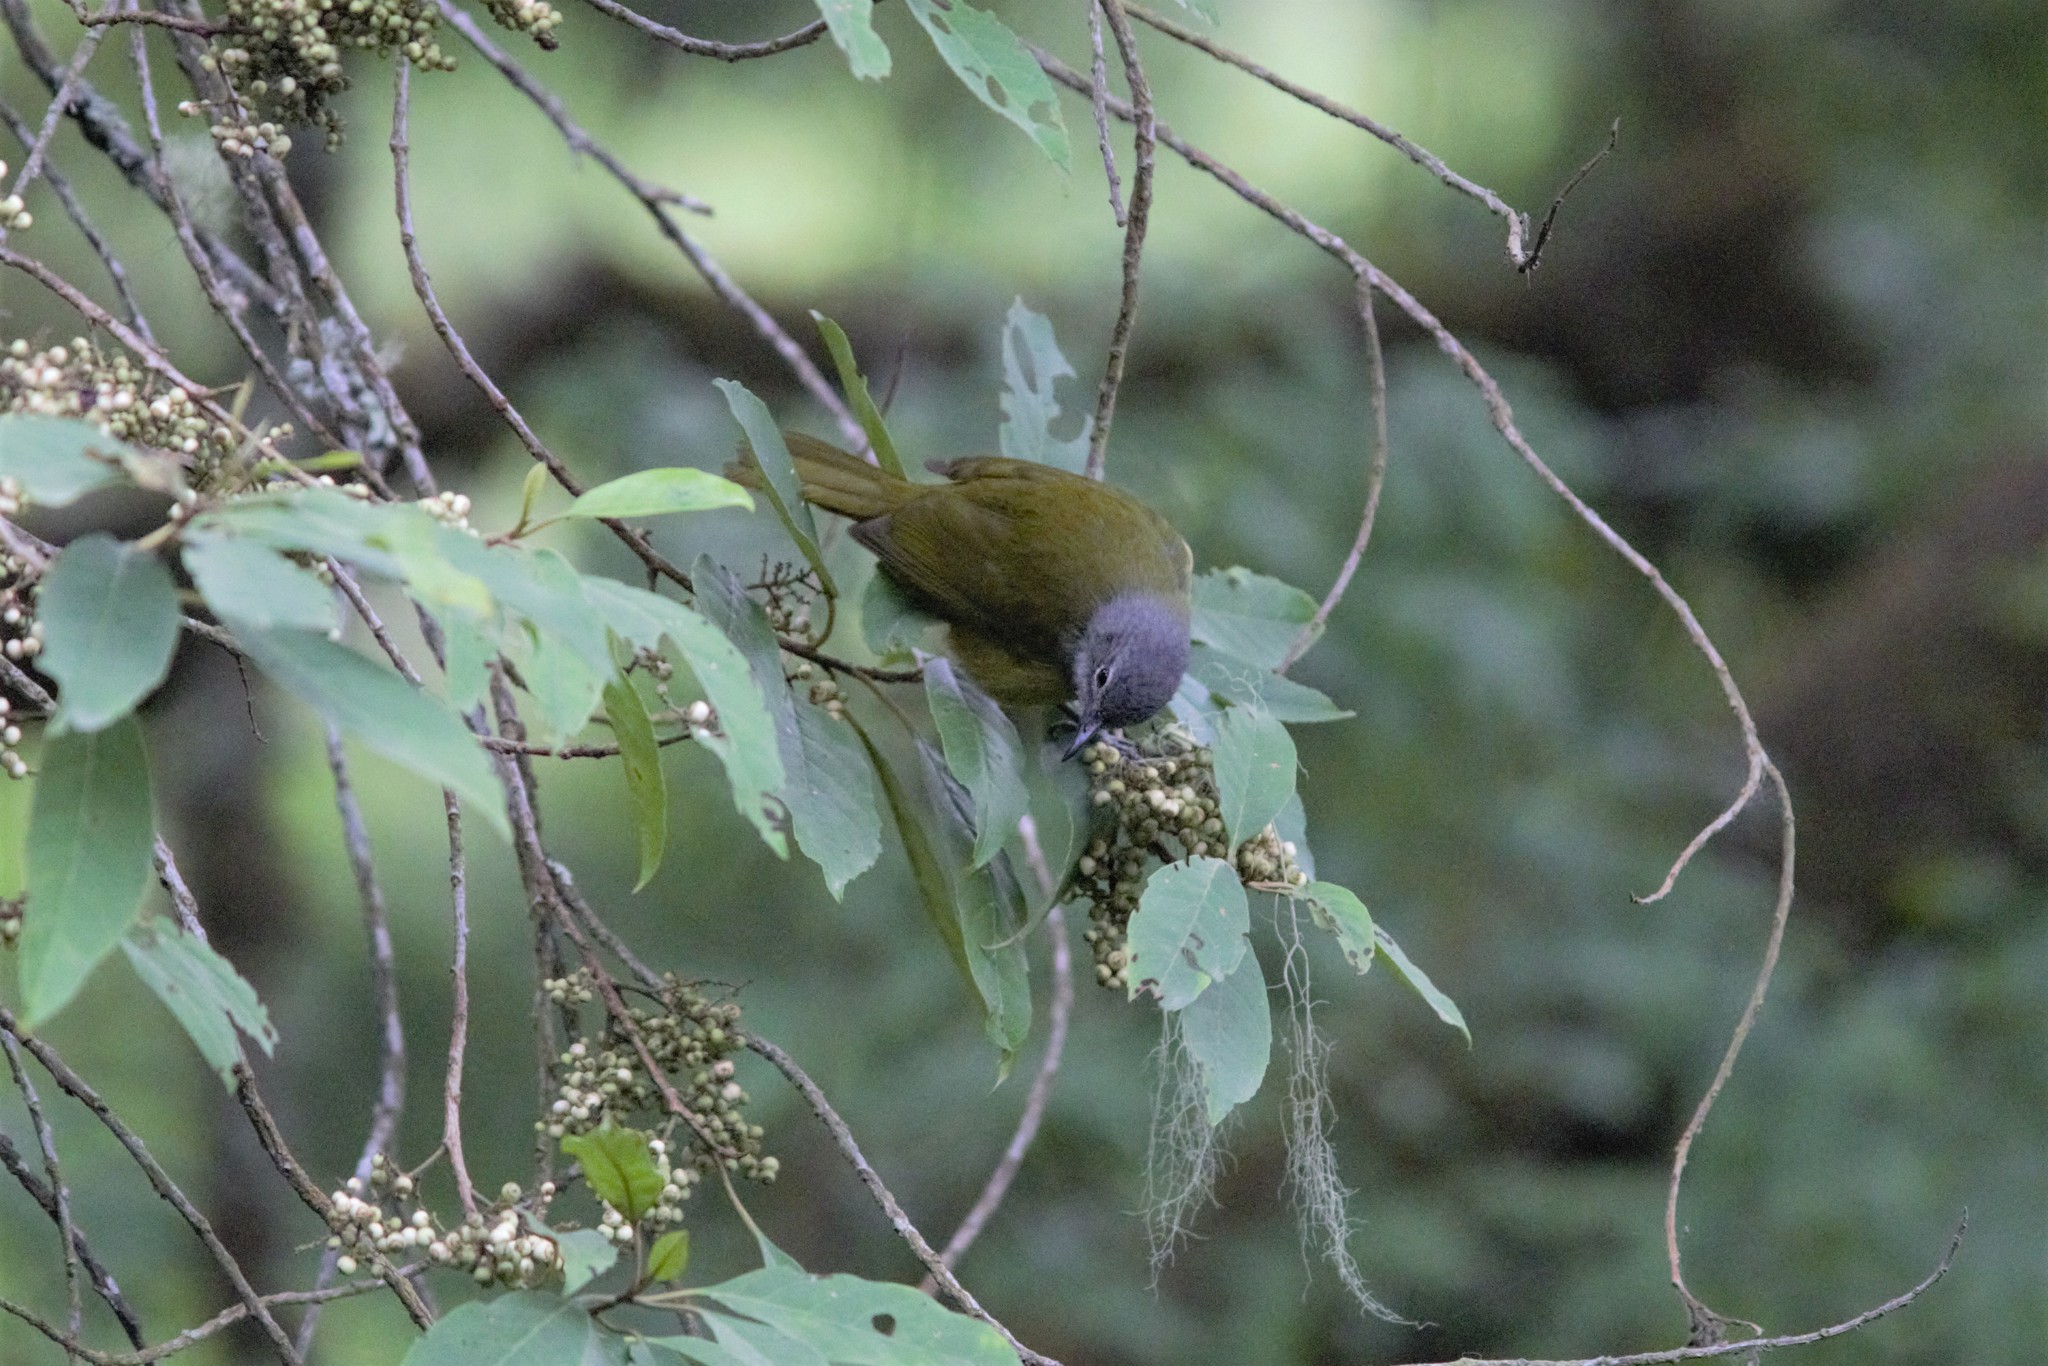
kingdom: Animalia
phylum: Chordata
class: Aves
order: Passeriformes
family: Pycnonotidae
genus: Arizelocichla
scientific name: Arizelocichla tephrolaema
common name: Western greenbul
